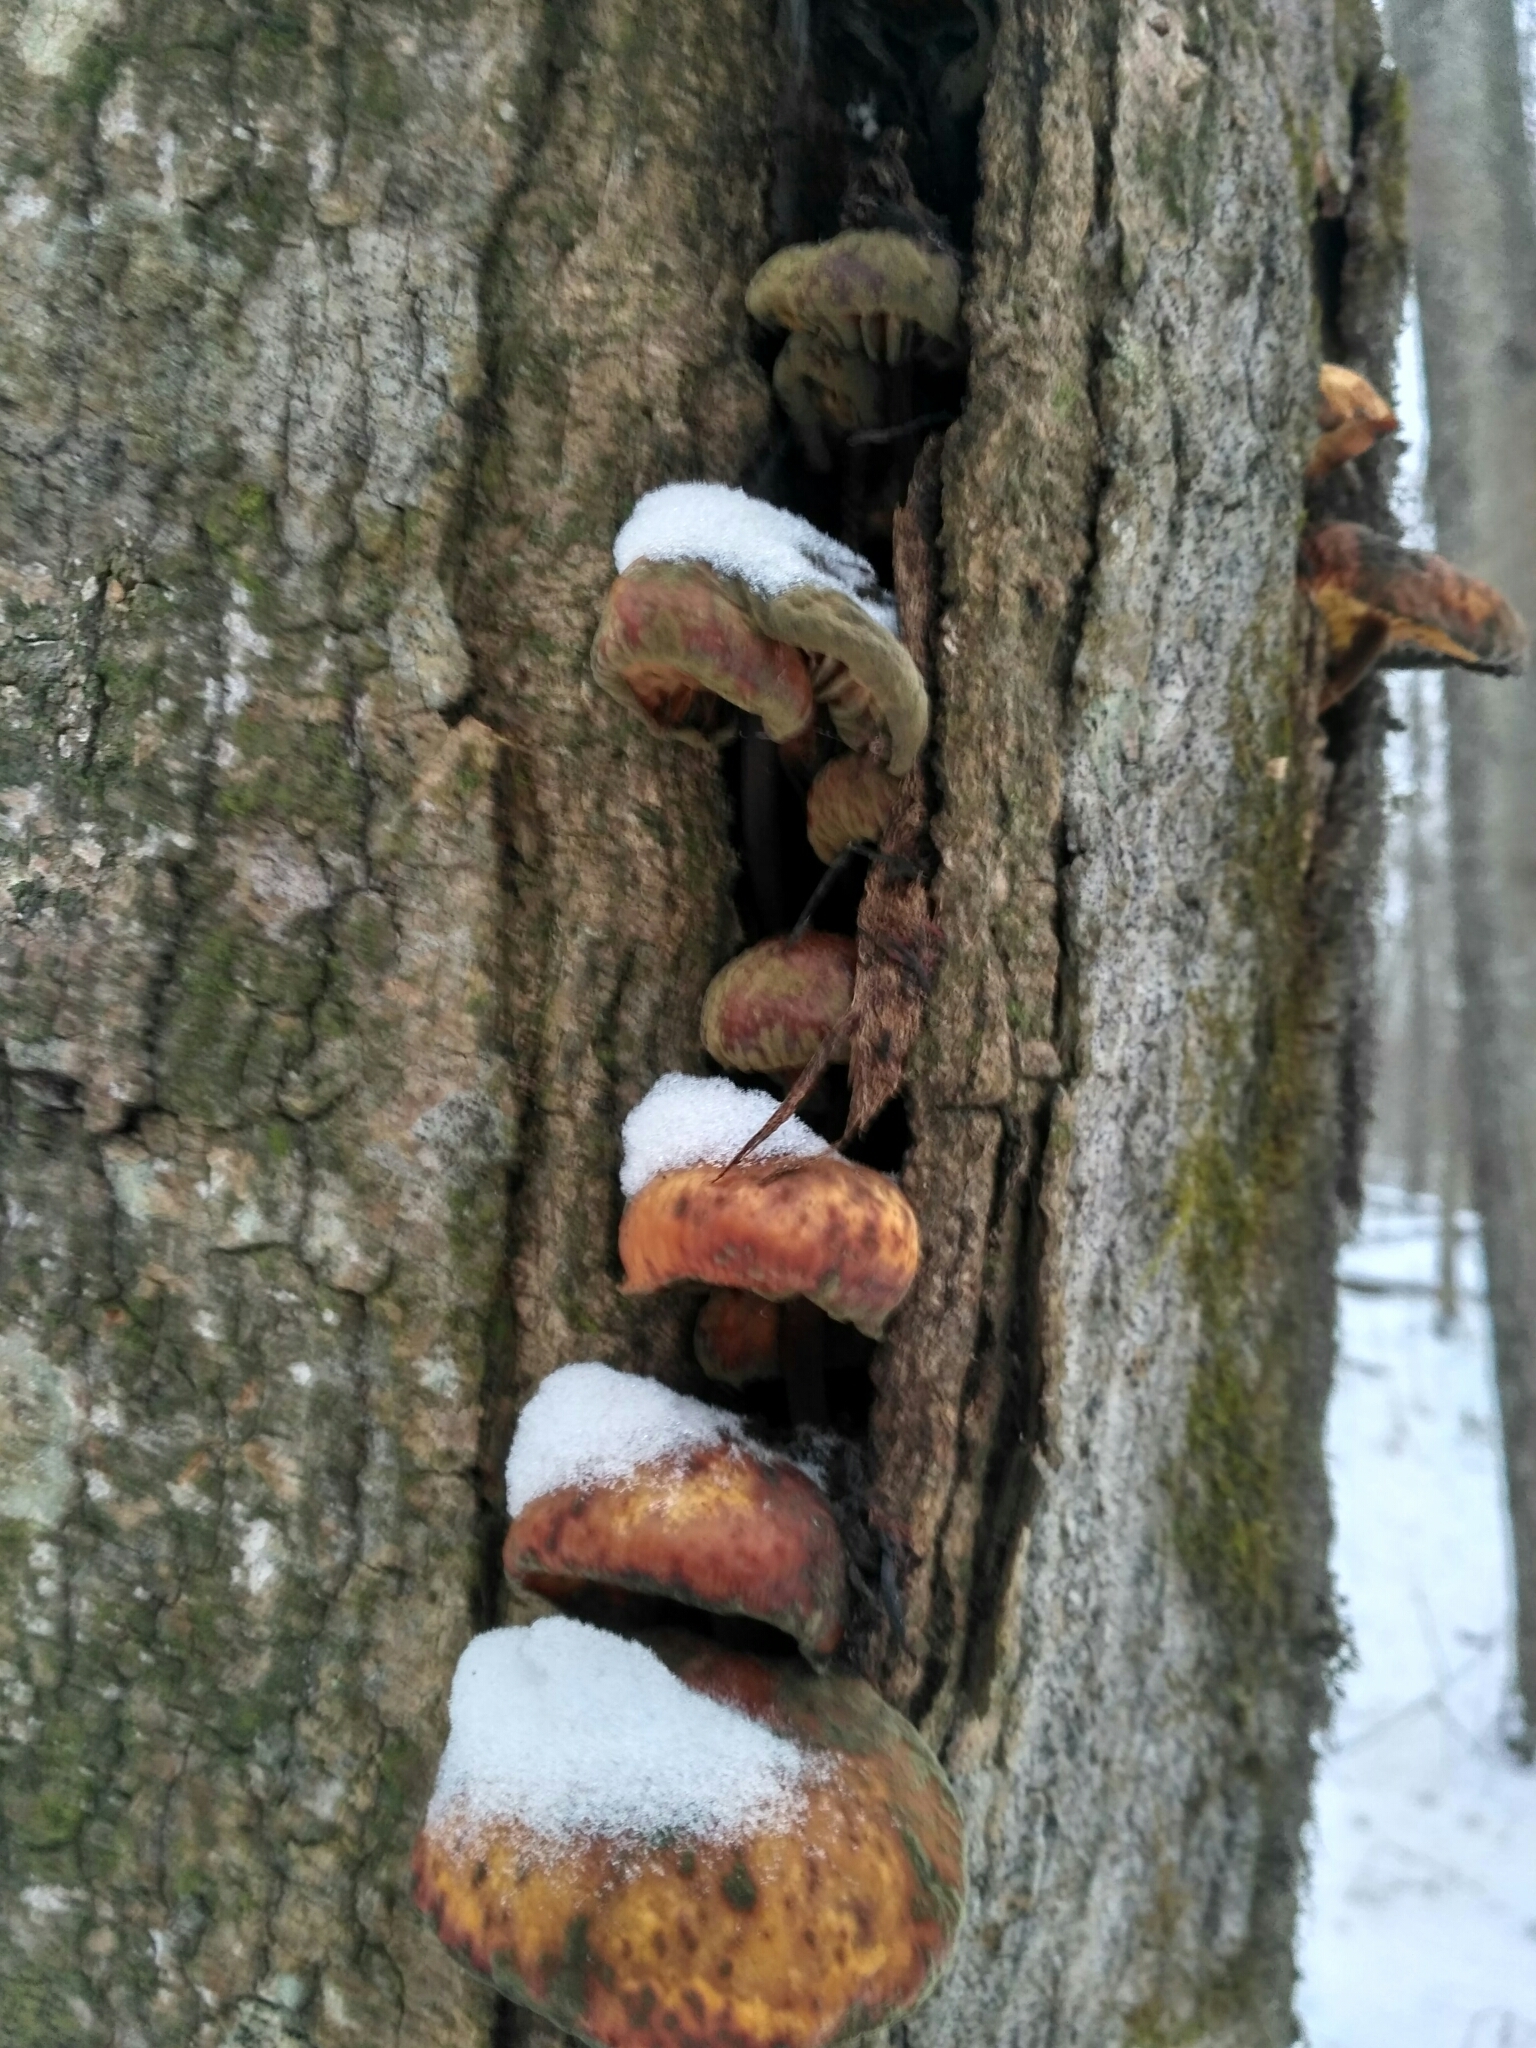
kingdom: Fungi
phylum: Basidiomycota
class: Agaricomycetes
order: Agaricales
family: Physalacriaceae
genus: Flammulina
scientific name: Flammulina
